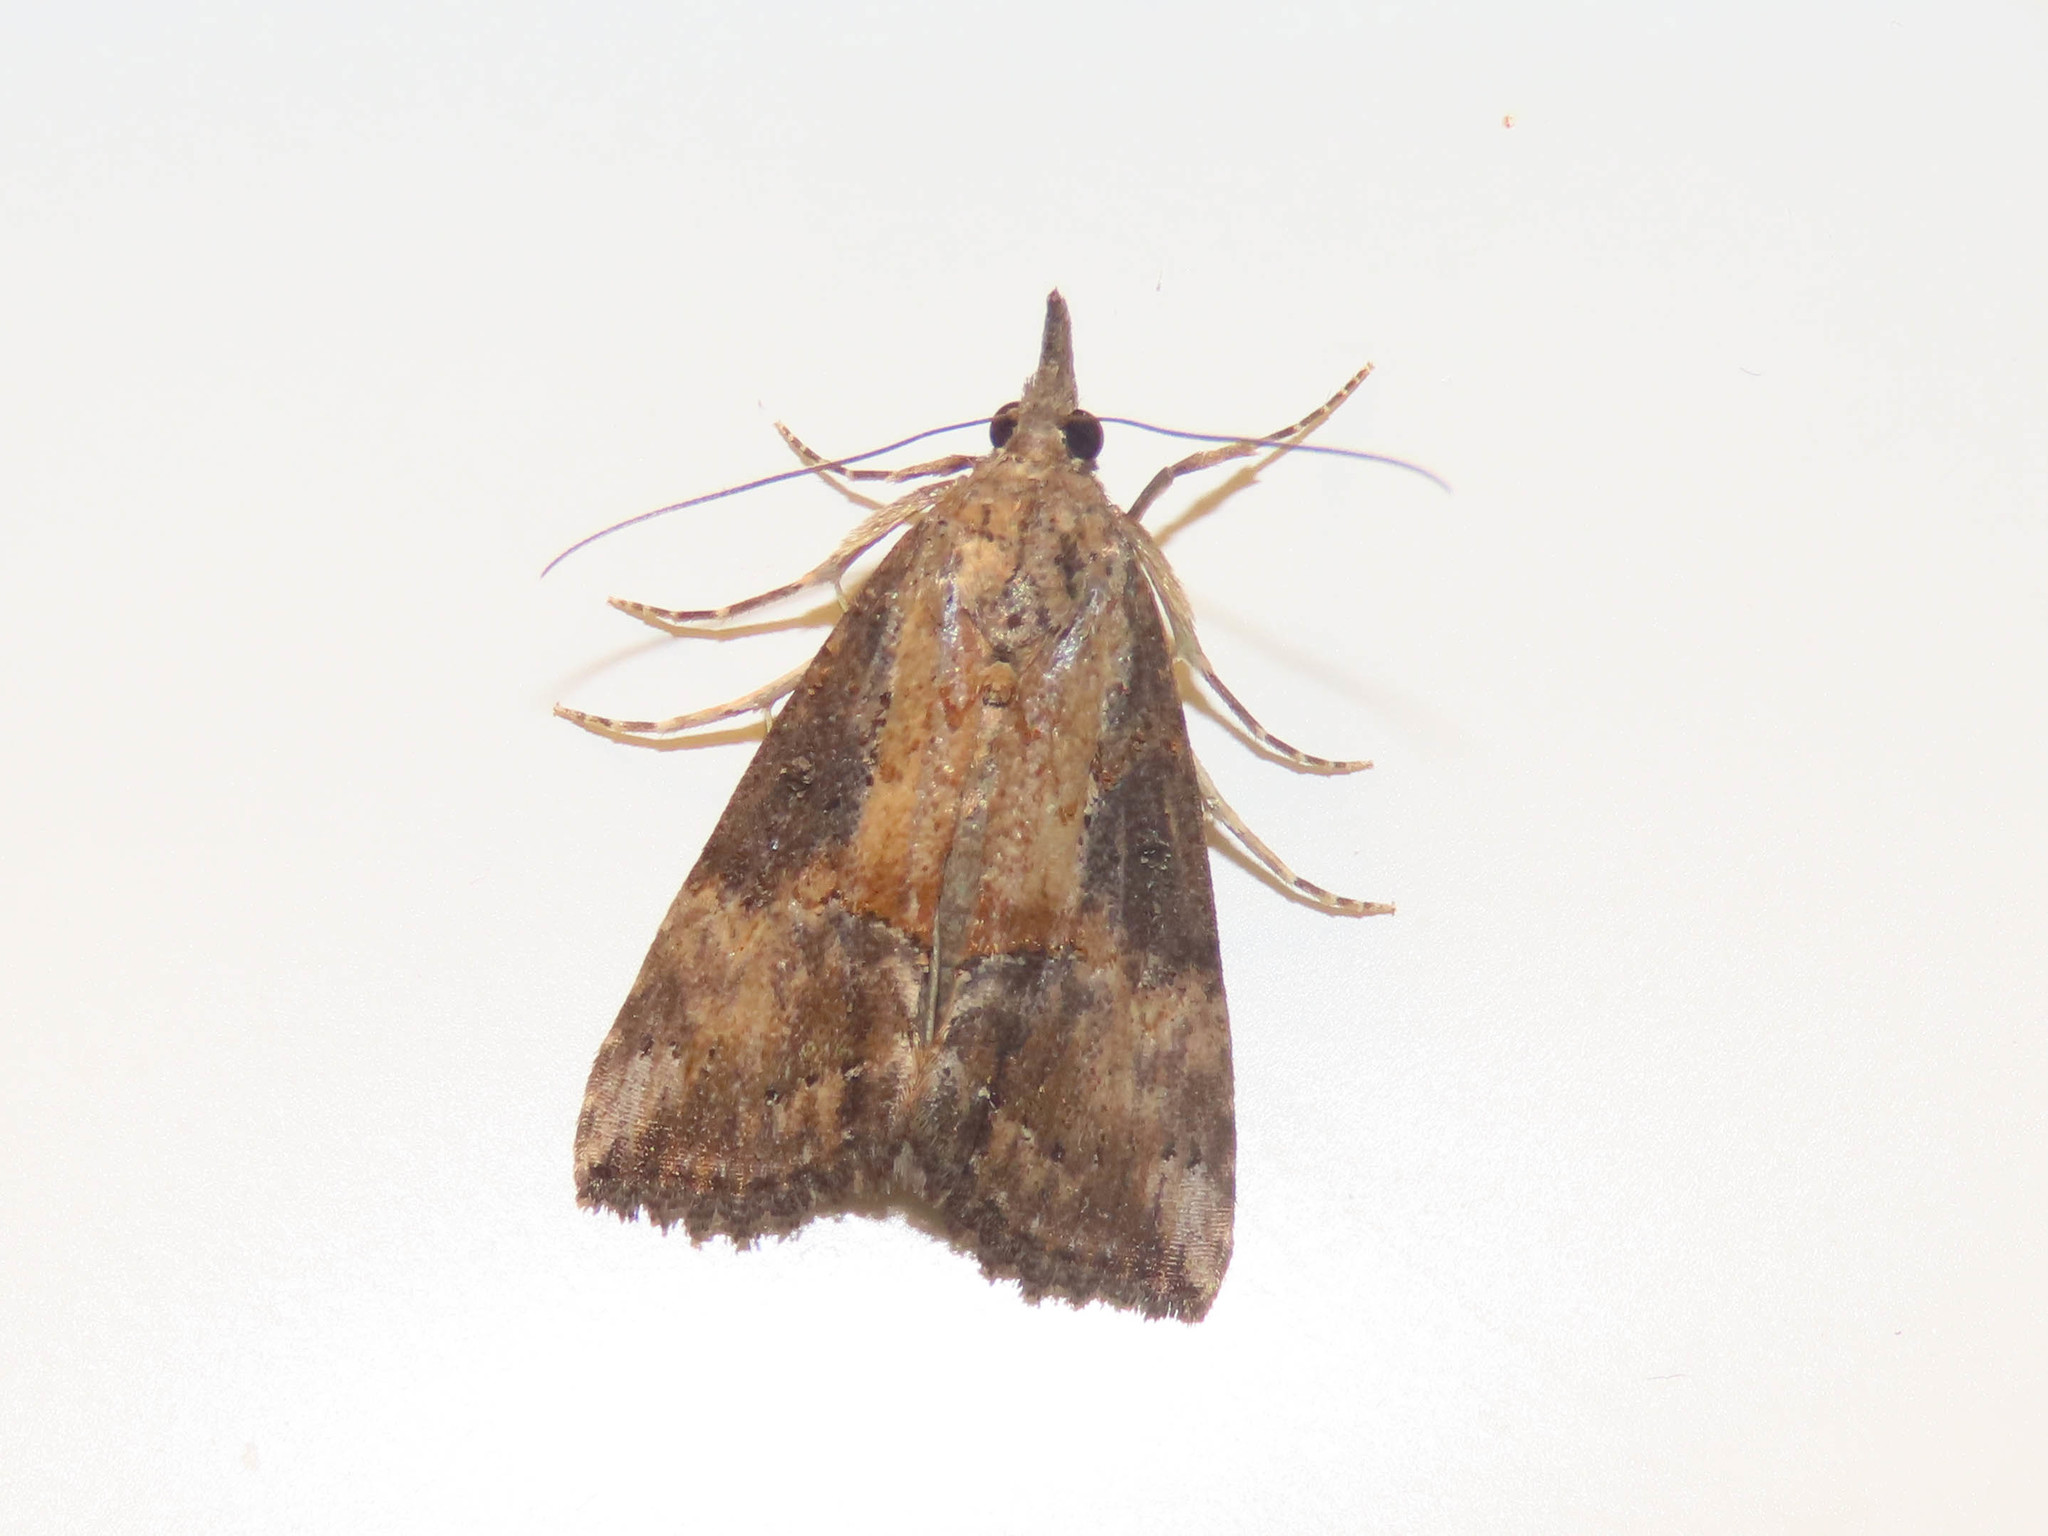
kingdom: Animalia
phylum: Arthropoda
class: Insecta
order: Lepidoptera
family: Erebidae
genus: Hypena
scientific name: Hypena scabra
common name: Green cloverworm
